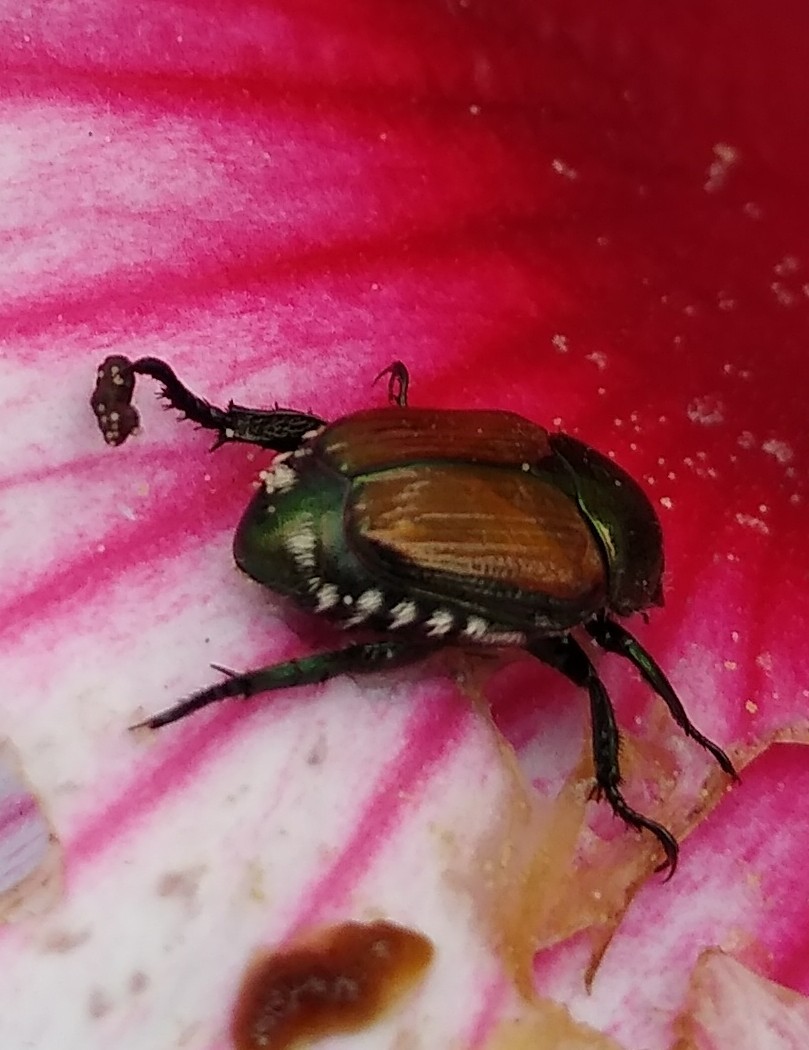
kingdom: Animalia
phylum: Arthropoda
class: Insecta
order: Coleoptera
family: Scarabaeidae
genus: Popillia
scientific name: Popillia japonica
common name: Japanese beetle
